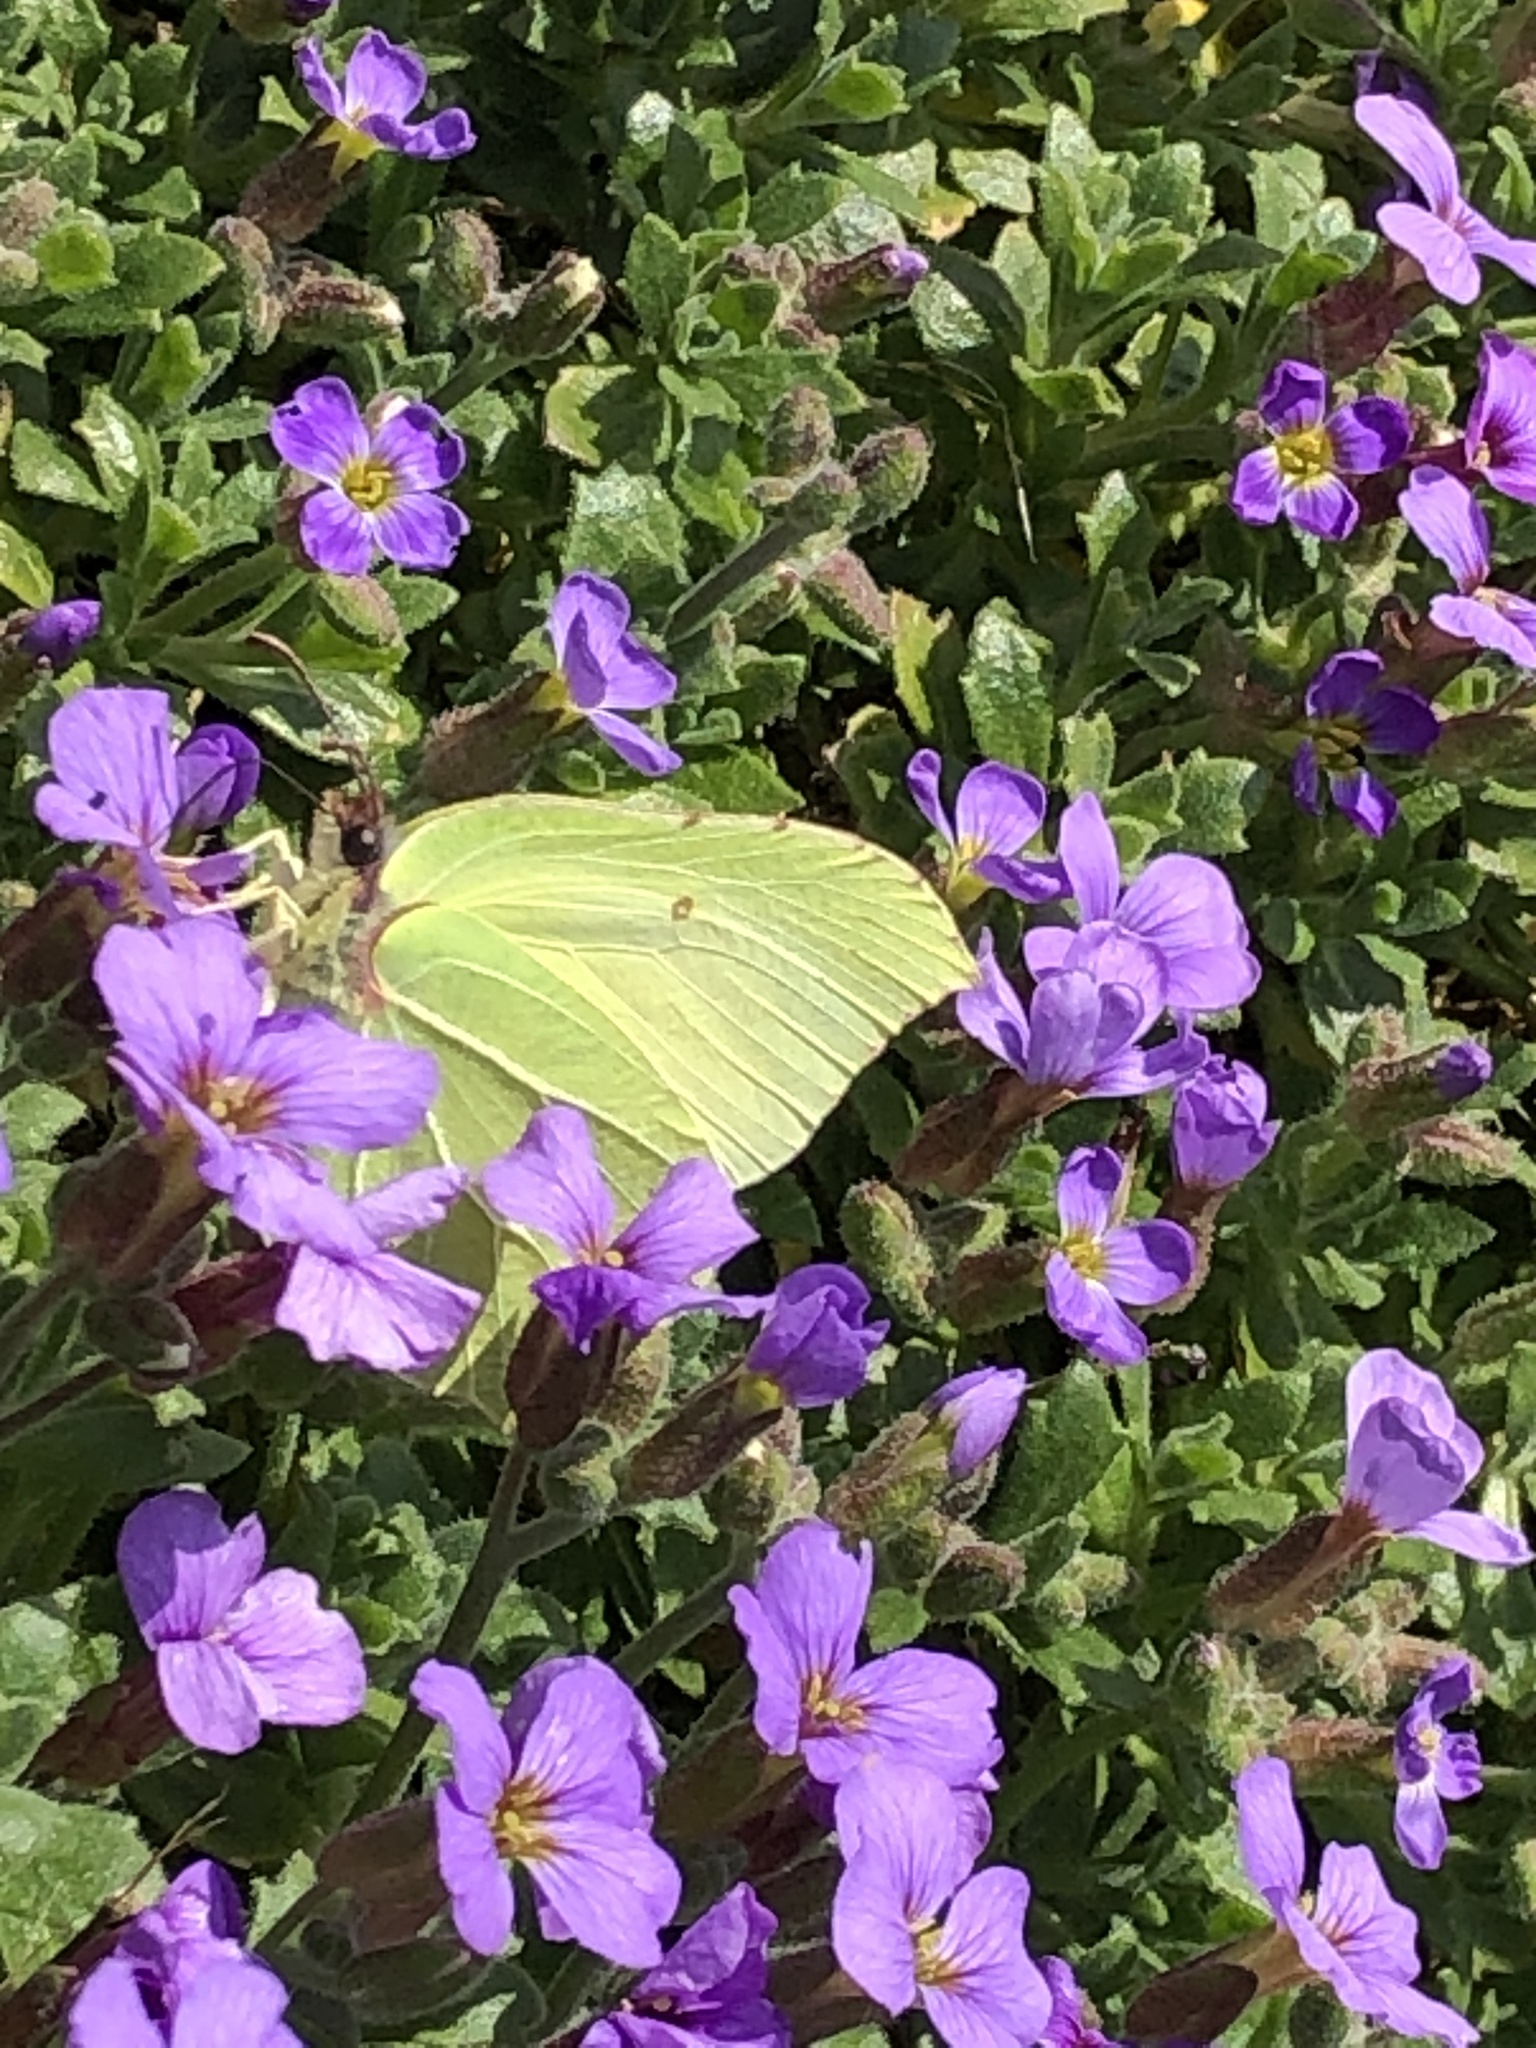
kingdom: Animalia
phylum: Arthropoda
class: Insecta
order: Lepidoptera
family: Pieridae
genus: Gonepteryx
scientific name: Gonepteryx rhamni
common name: Brimstone
